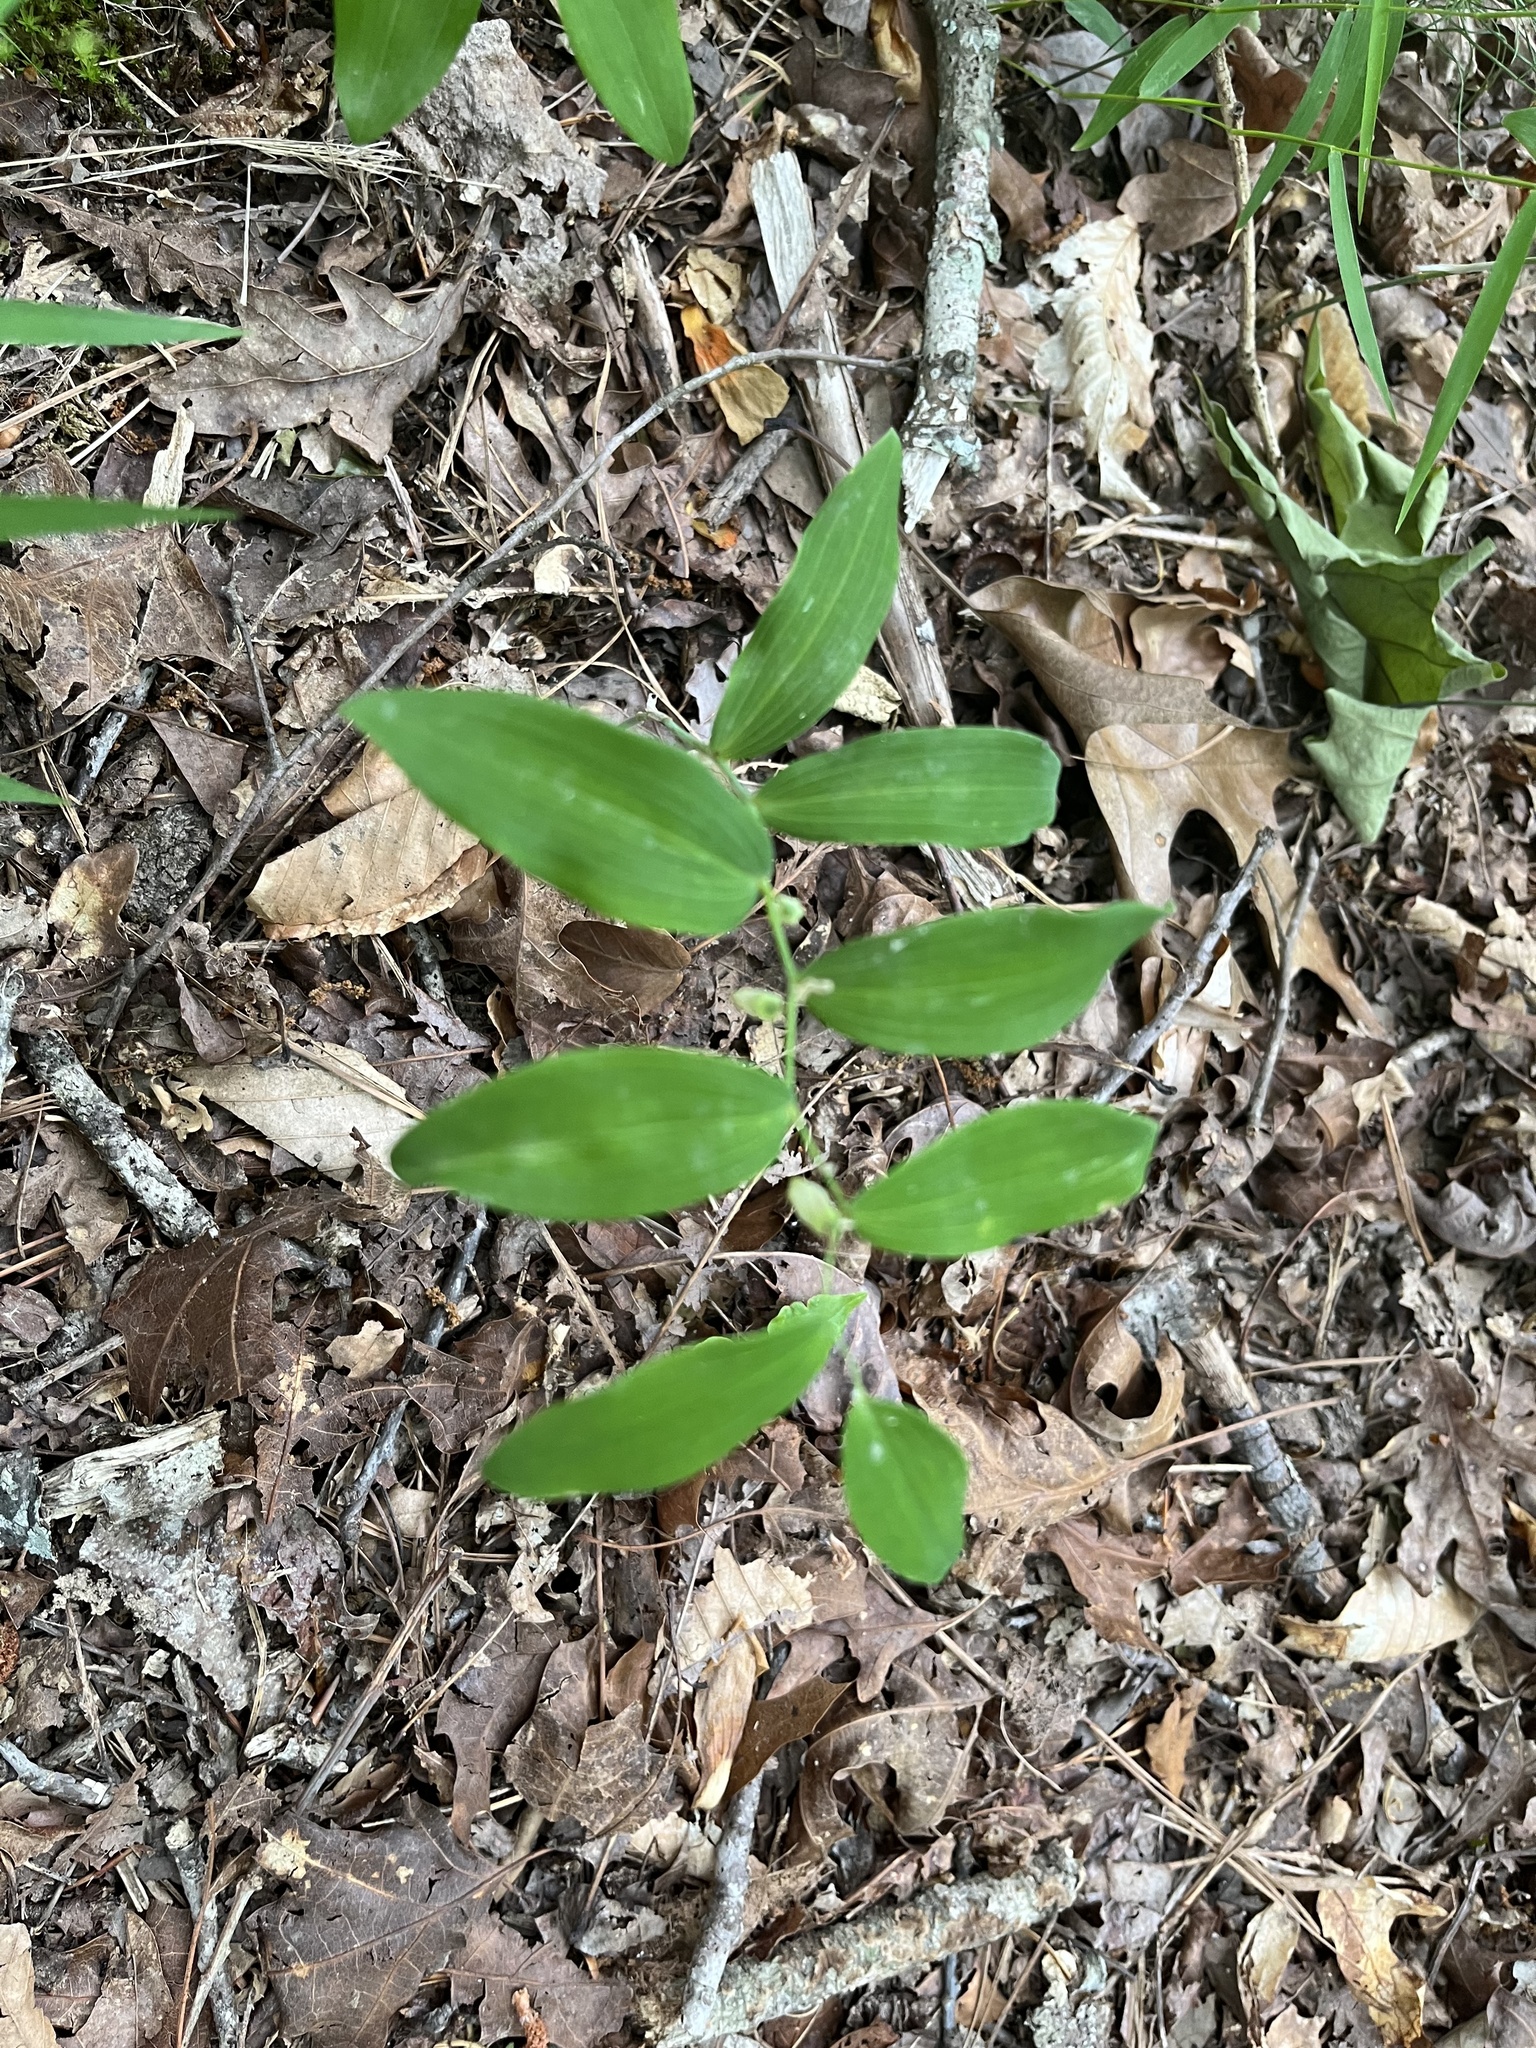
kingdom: Plantae
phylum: Tracheophyta
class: Liliopsida
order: Asparagales
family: Asparagaceae
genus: Polygonatum
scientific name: Polygonatum biflorum
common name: American solomon's-seal
